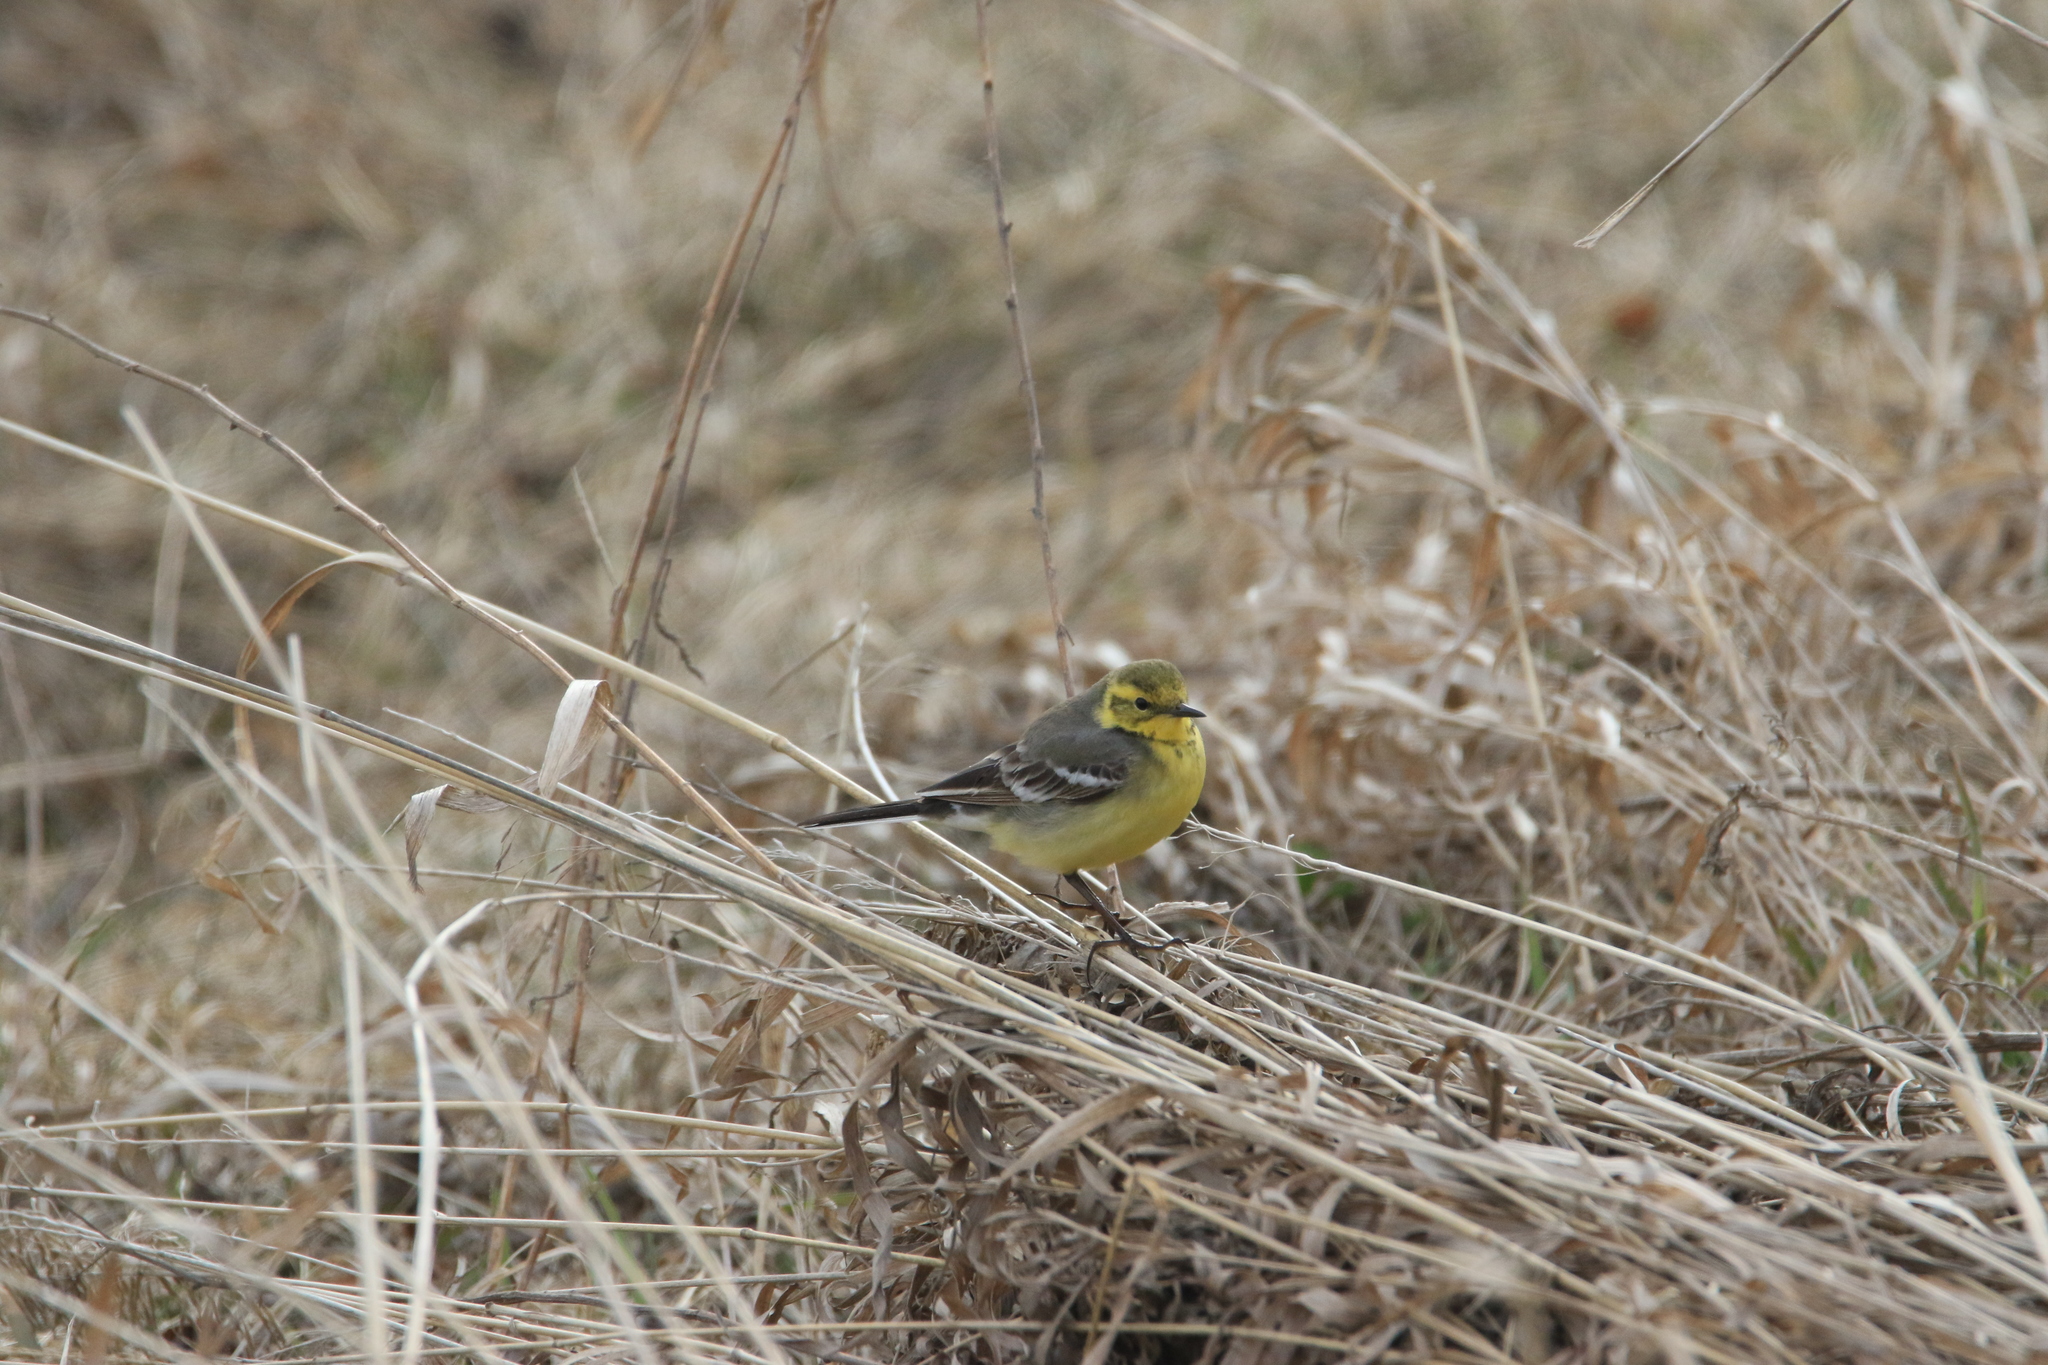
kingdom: Animalia
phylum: Chordata
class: Aves
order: Passeriformes
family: Motacillidae
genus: Motacilla
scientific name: Motacilla citreola
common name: Citrine wagtail
